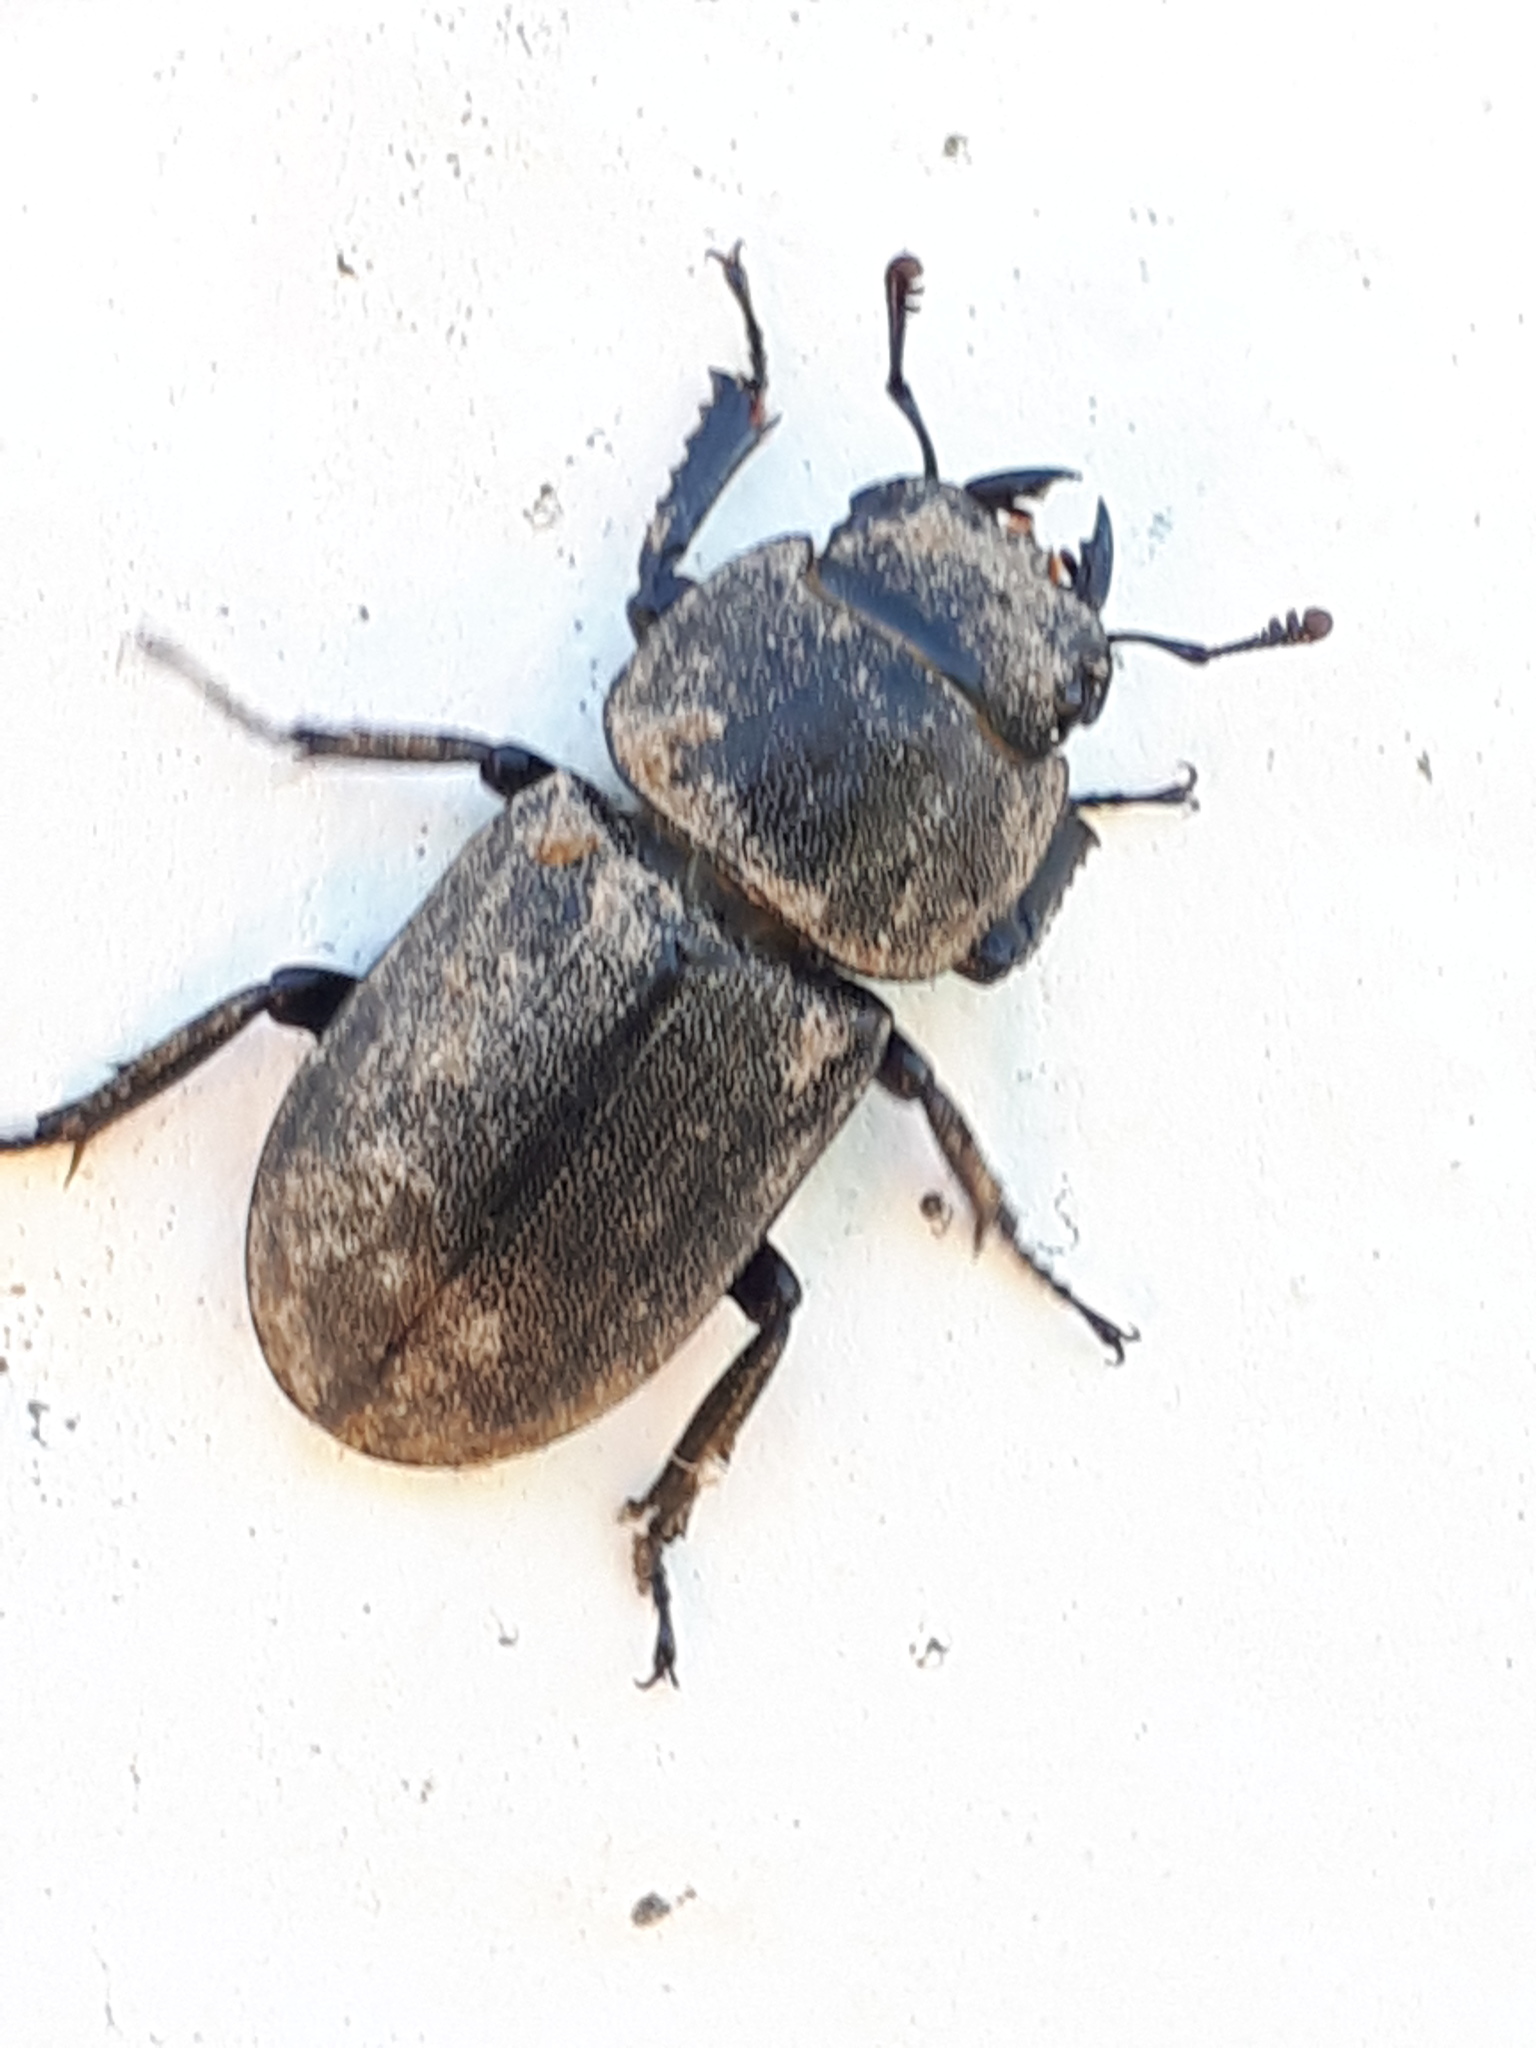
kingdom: Animalia
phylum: Arthropoda
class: Insecta
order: Coleoptera
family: Lucanidae
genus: Dorcus
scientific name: Dorcus parallelipipedus
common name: Lesser stag beetle
